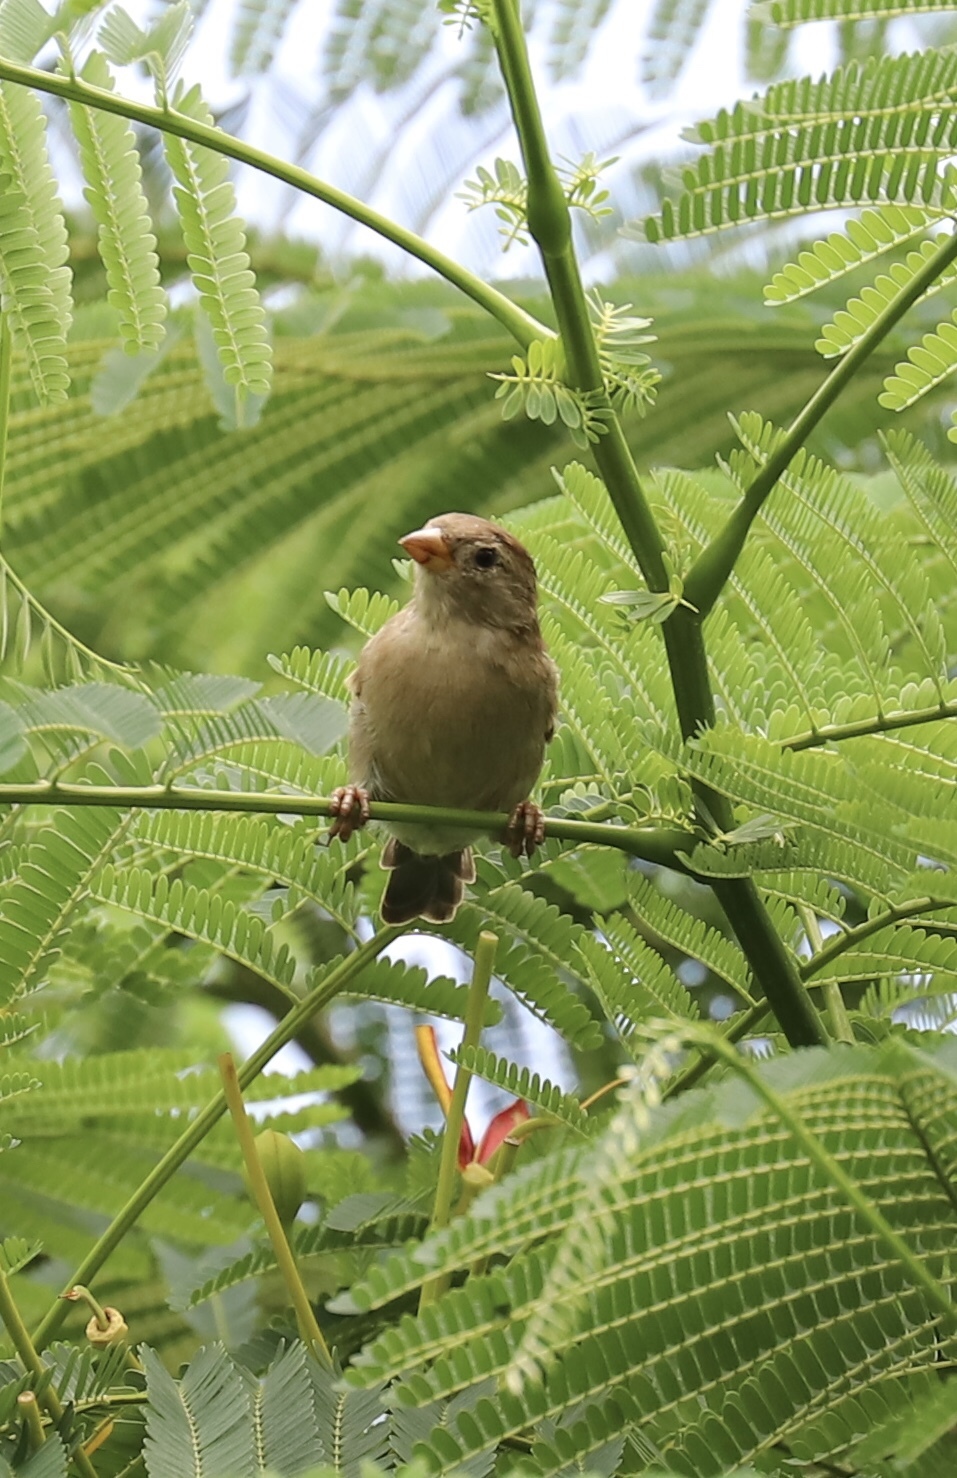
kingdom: Animalia
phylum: Chordata
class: Aves
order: Passeriformes
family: Passeridae
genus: Passer
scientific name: Passer domesticus
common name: House sparrow
